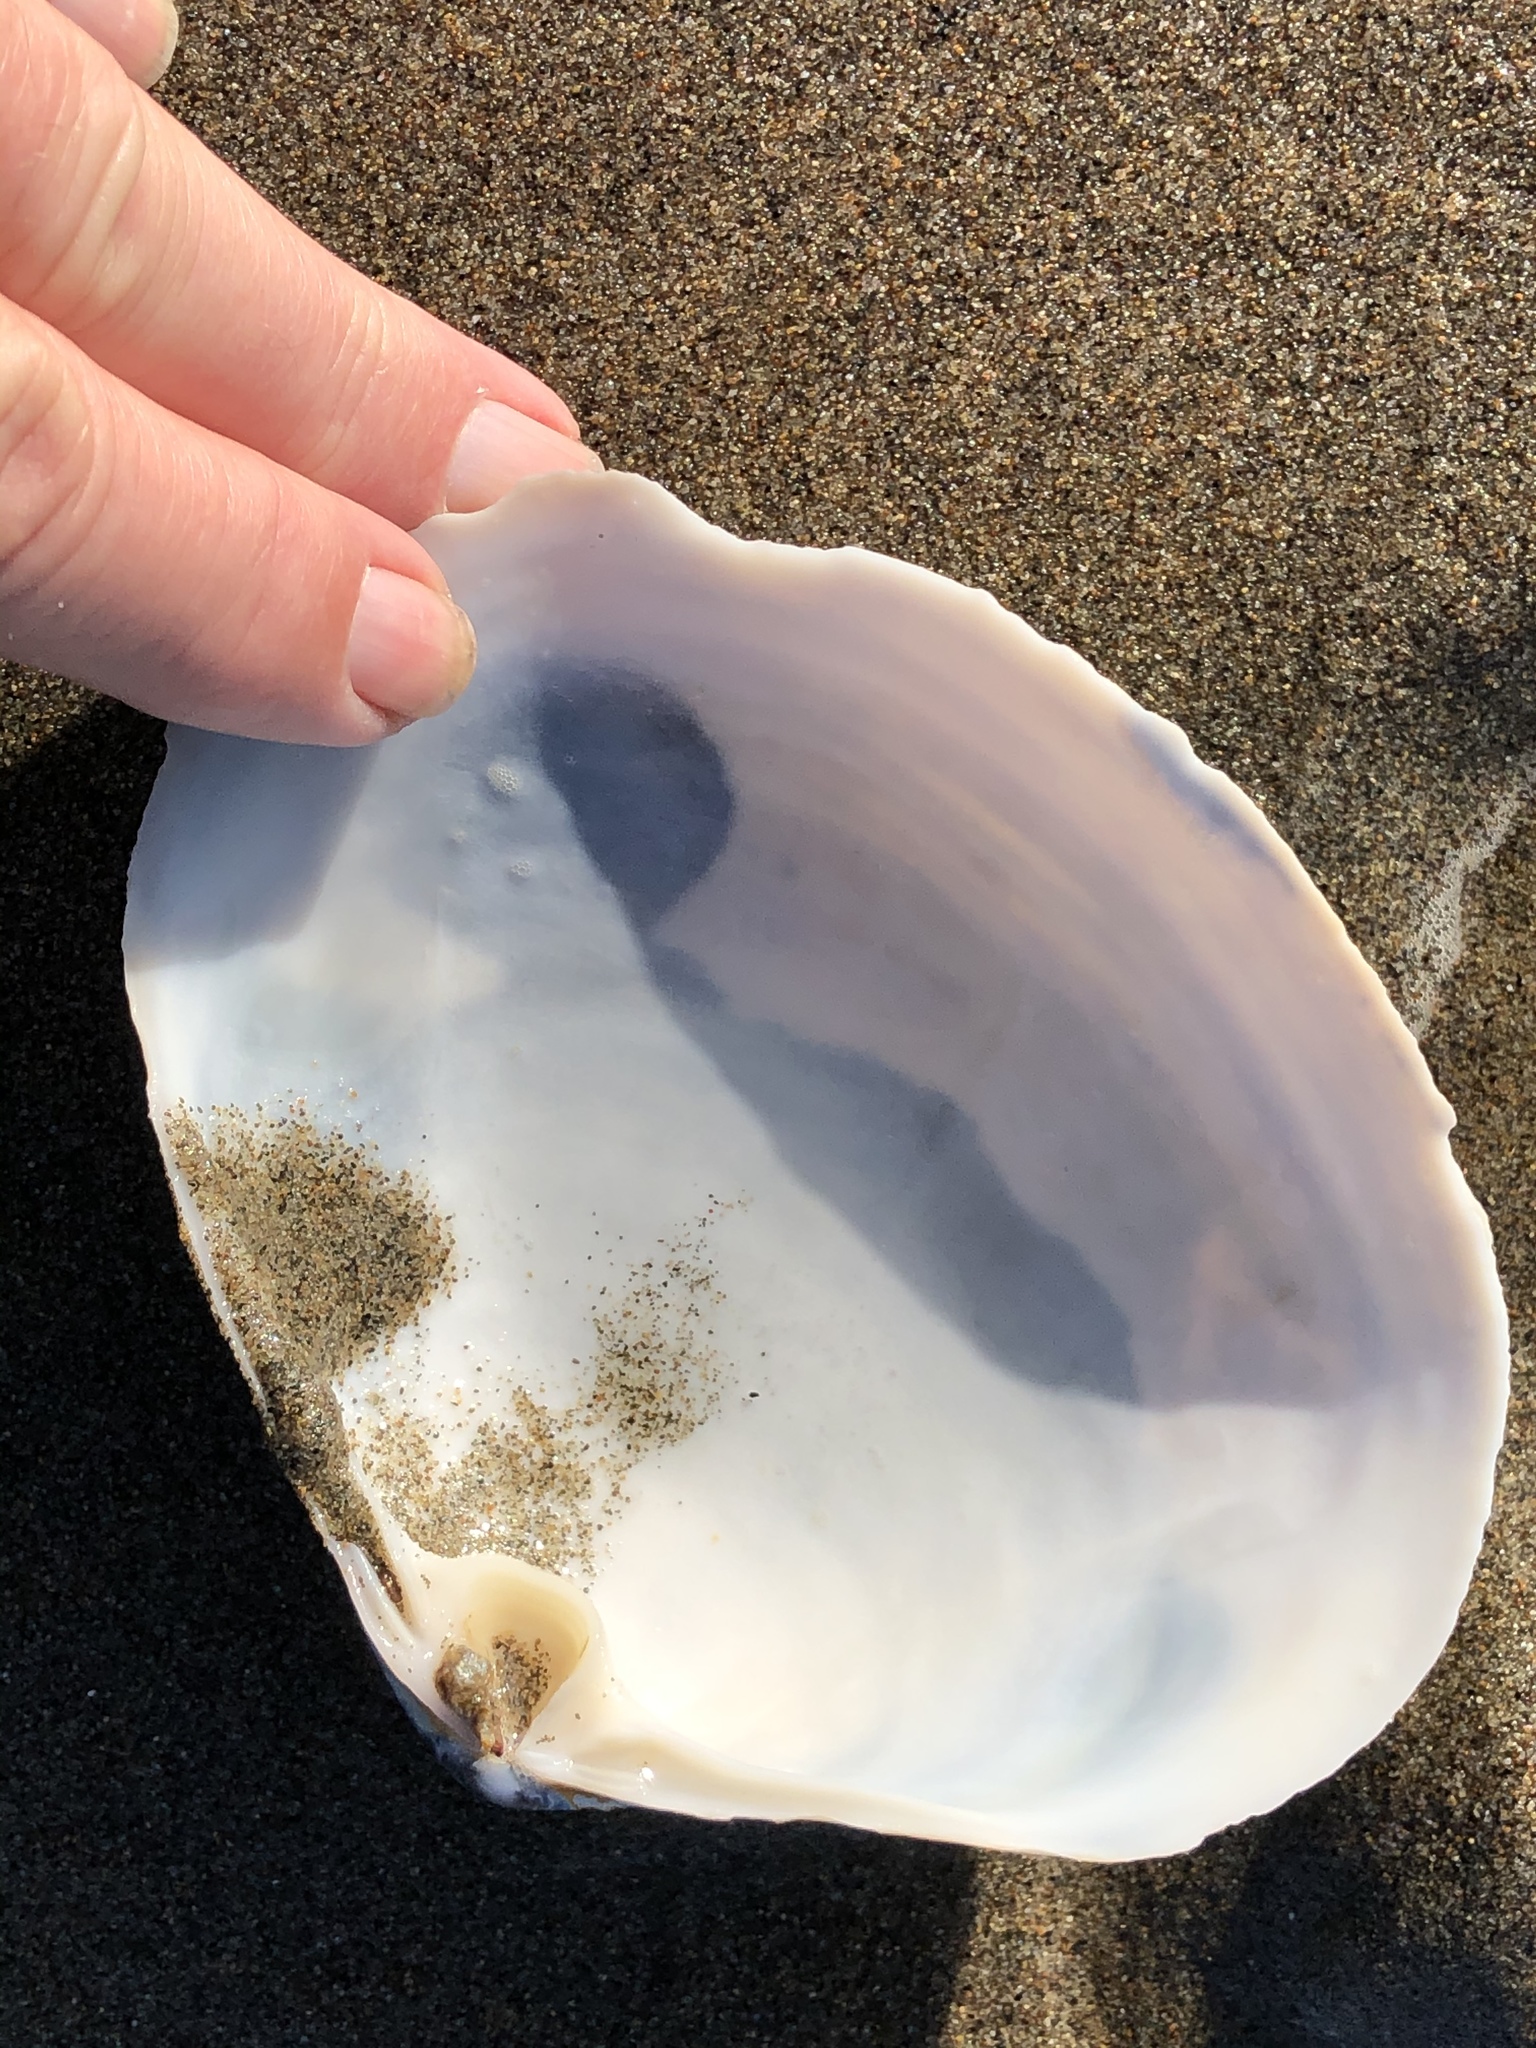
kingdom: Animalia
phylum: Mollusca
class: Bivalvia
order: Venerida
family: Mactridae
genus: Mactromeris
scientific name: Mactromeris catilliformis
